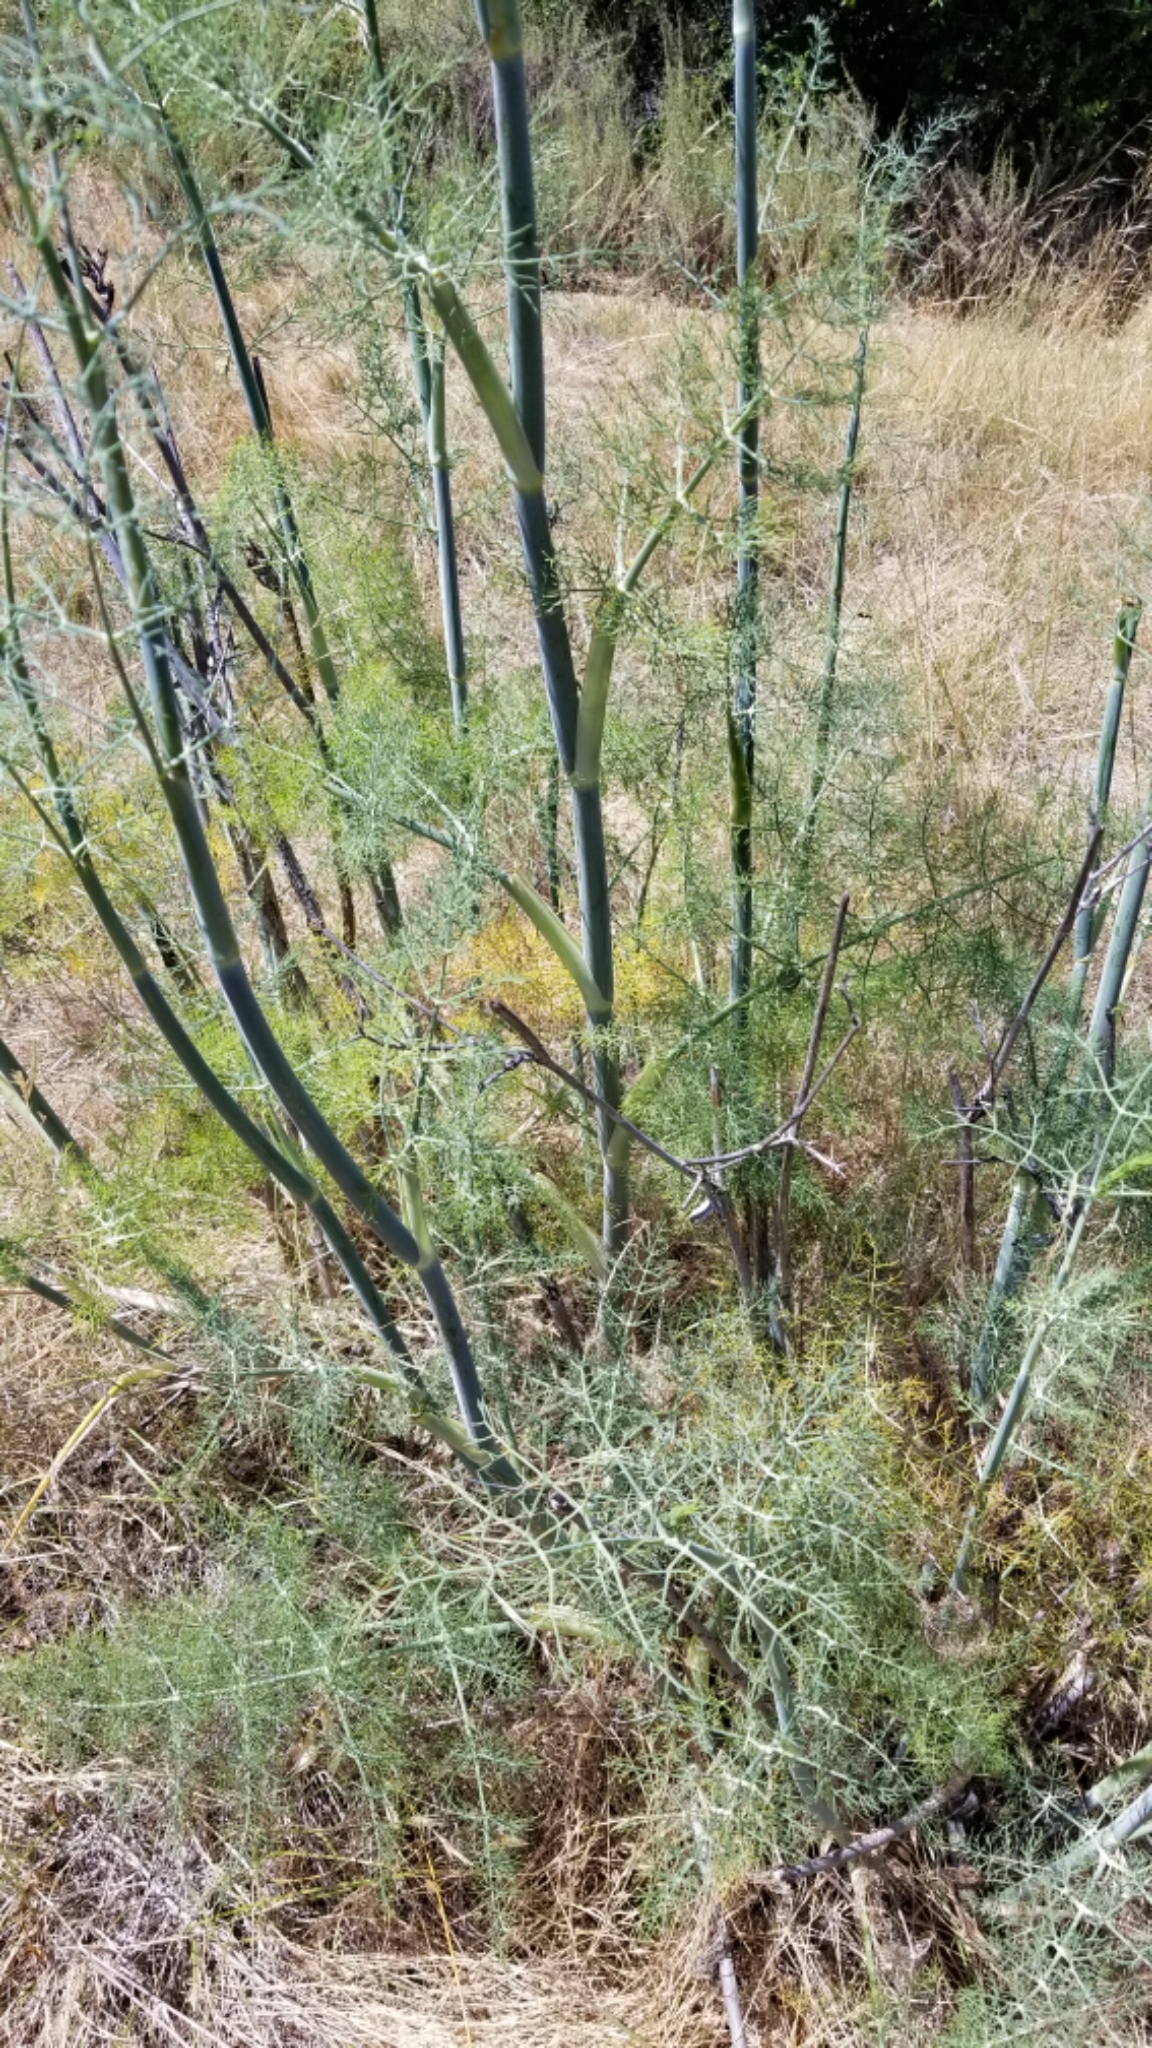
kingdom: Plantae
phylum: Tracheophyta
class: Magnoliopsida
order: Apiales
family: Apiaceae
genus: Foeniculum
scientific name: Foeniculum vulgare
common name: Fennel
